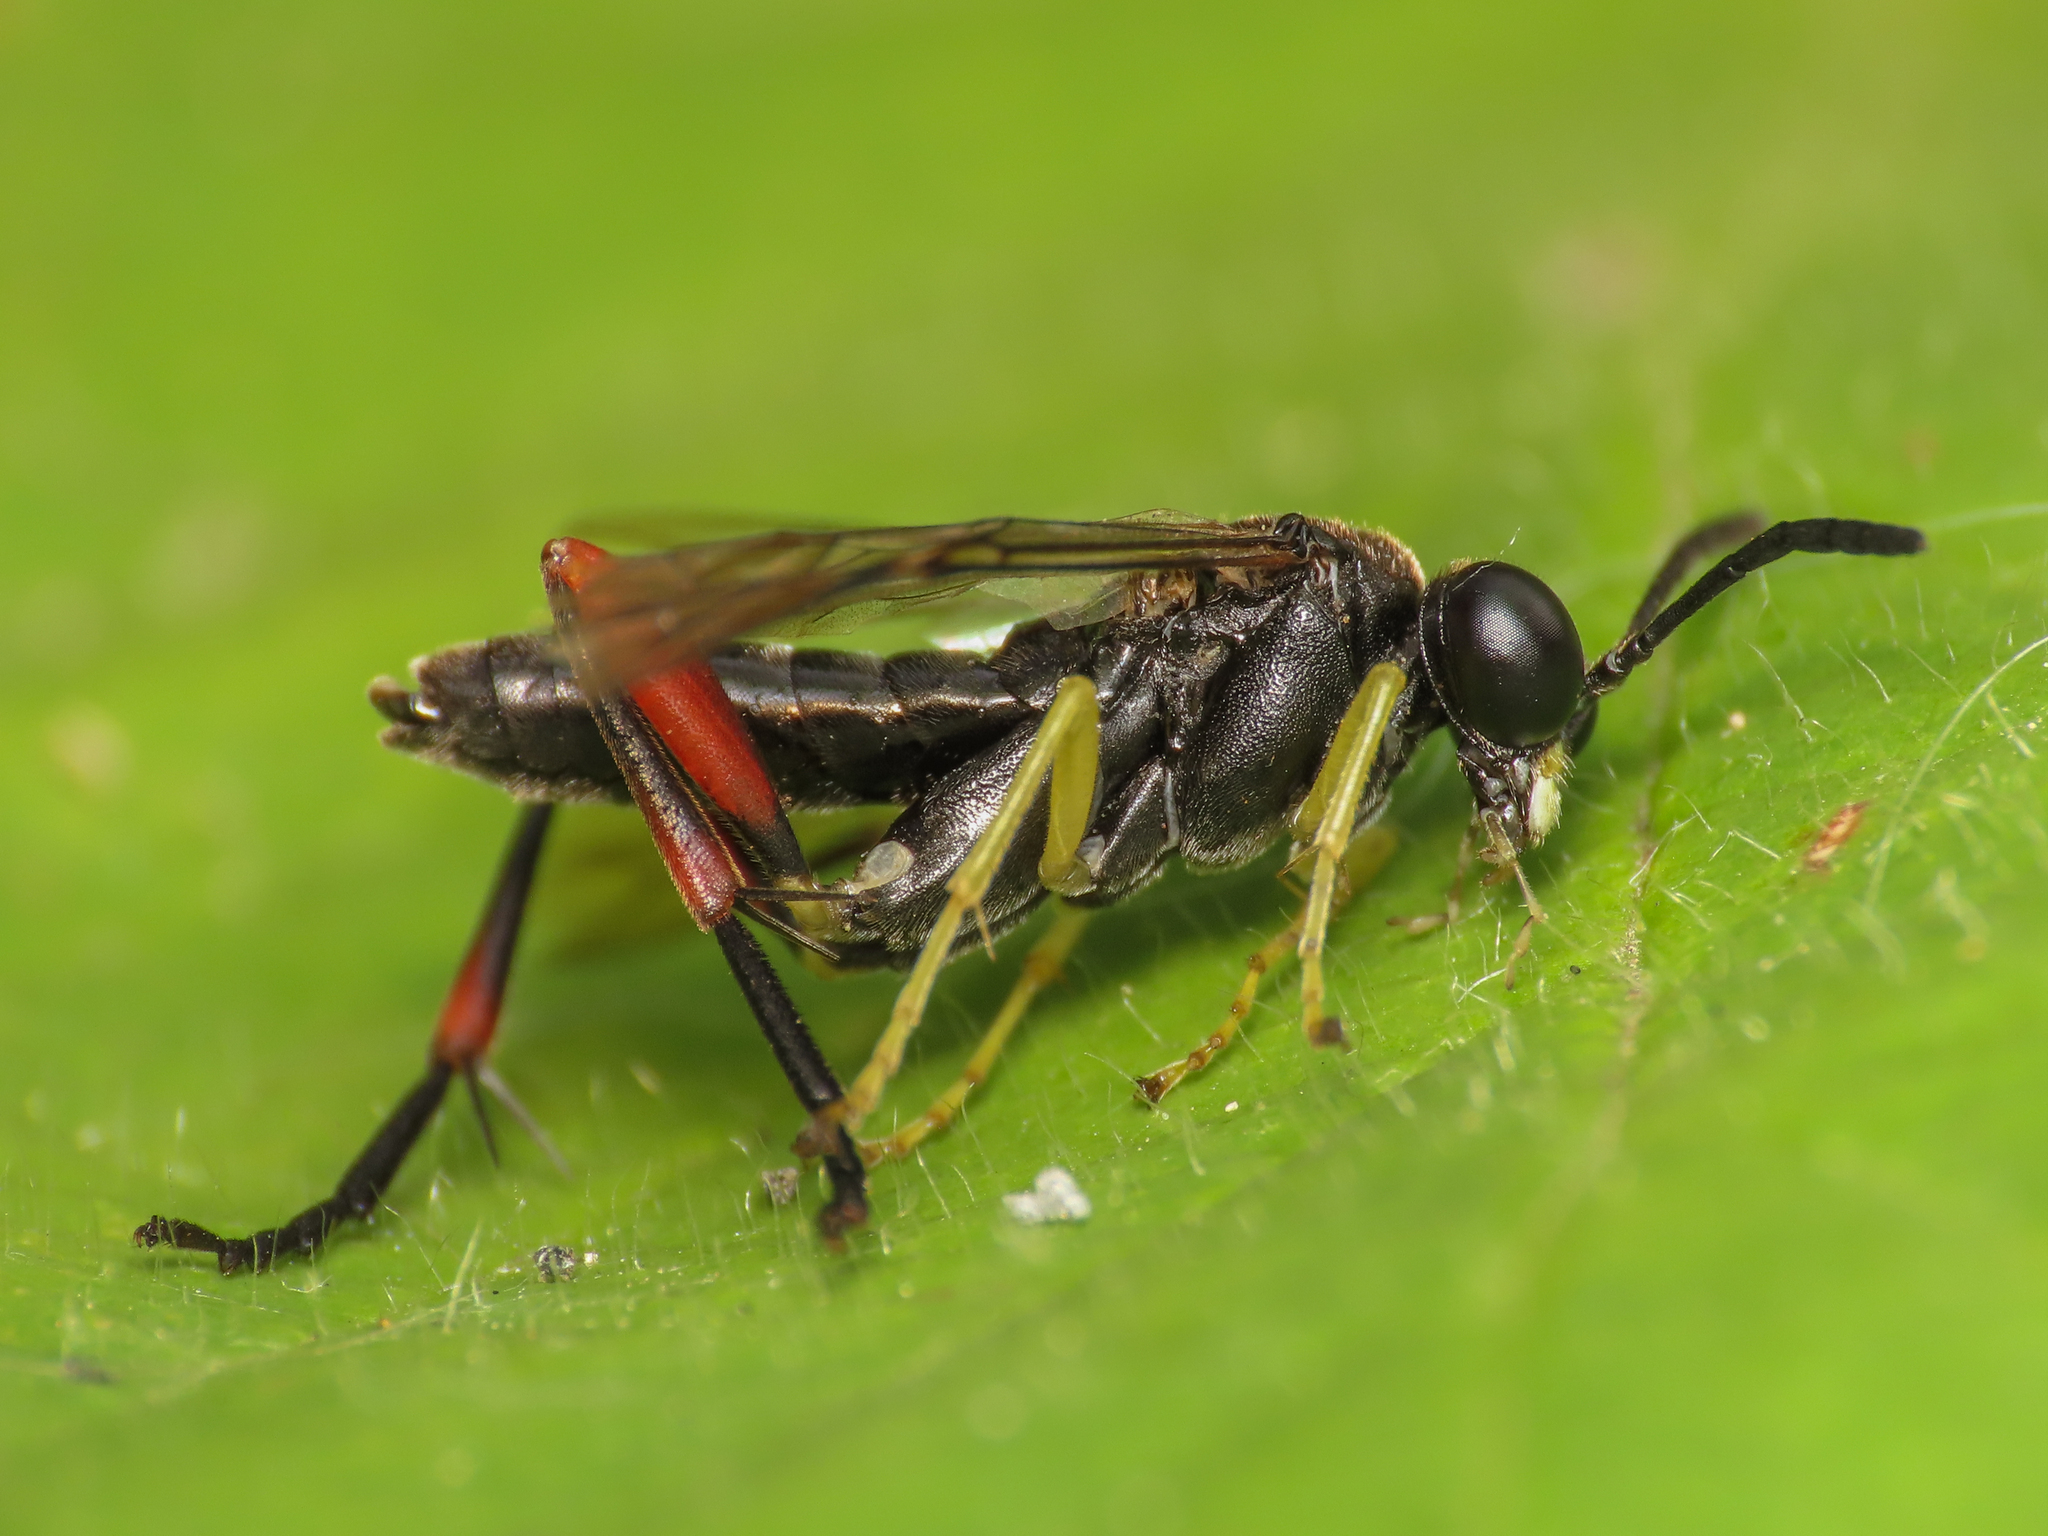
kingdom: Animalia
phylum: Arthropoda
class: Insecta
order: Hymenoptera
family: Tenthredinidae
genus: Macrophya
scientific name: Macrophya diversipes
